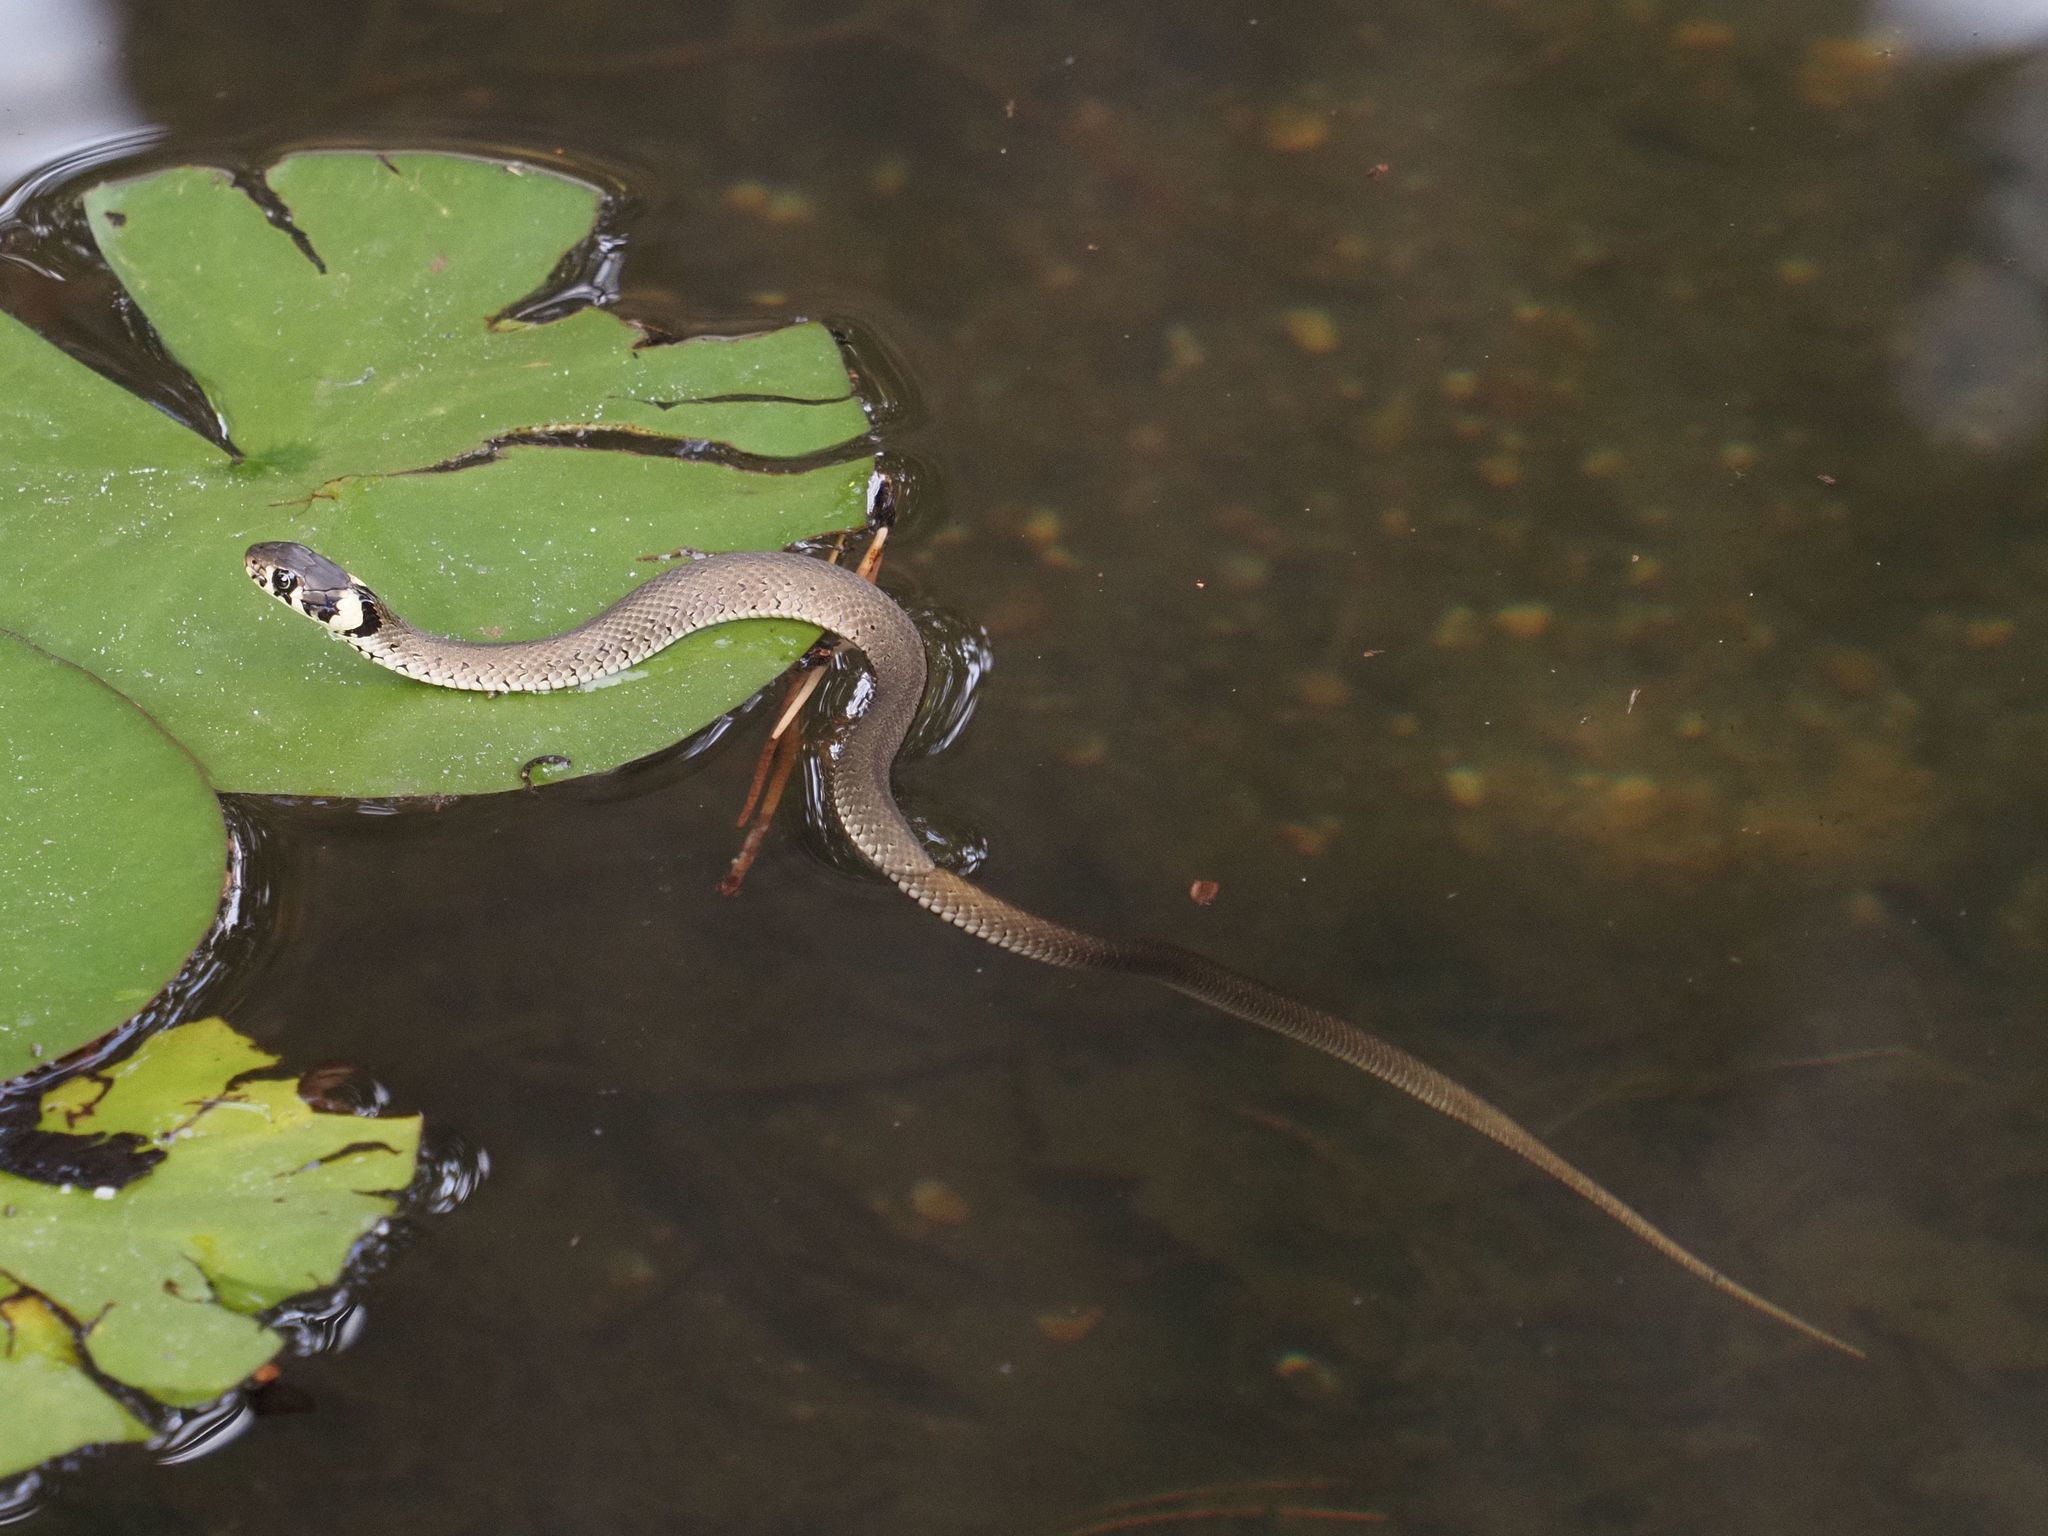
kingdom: Animalia
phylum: Chordata
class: Squamata
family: Colubridae
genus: Natrix
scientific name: Natrix natrix
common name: Grass snake
